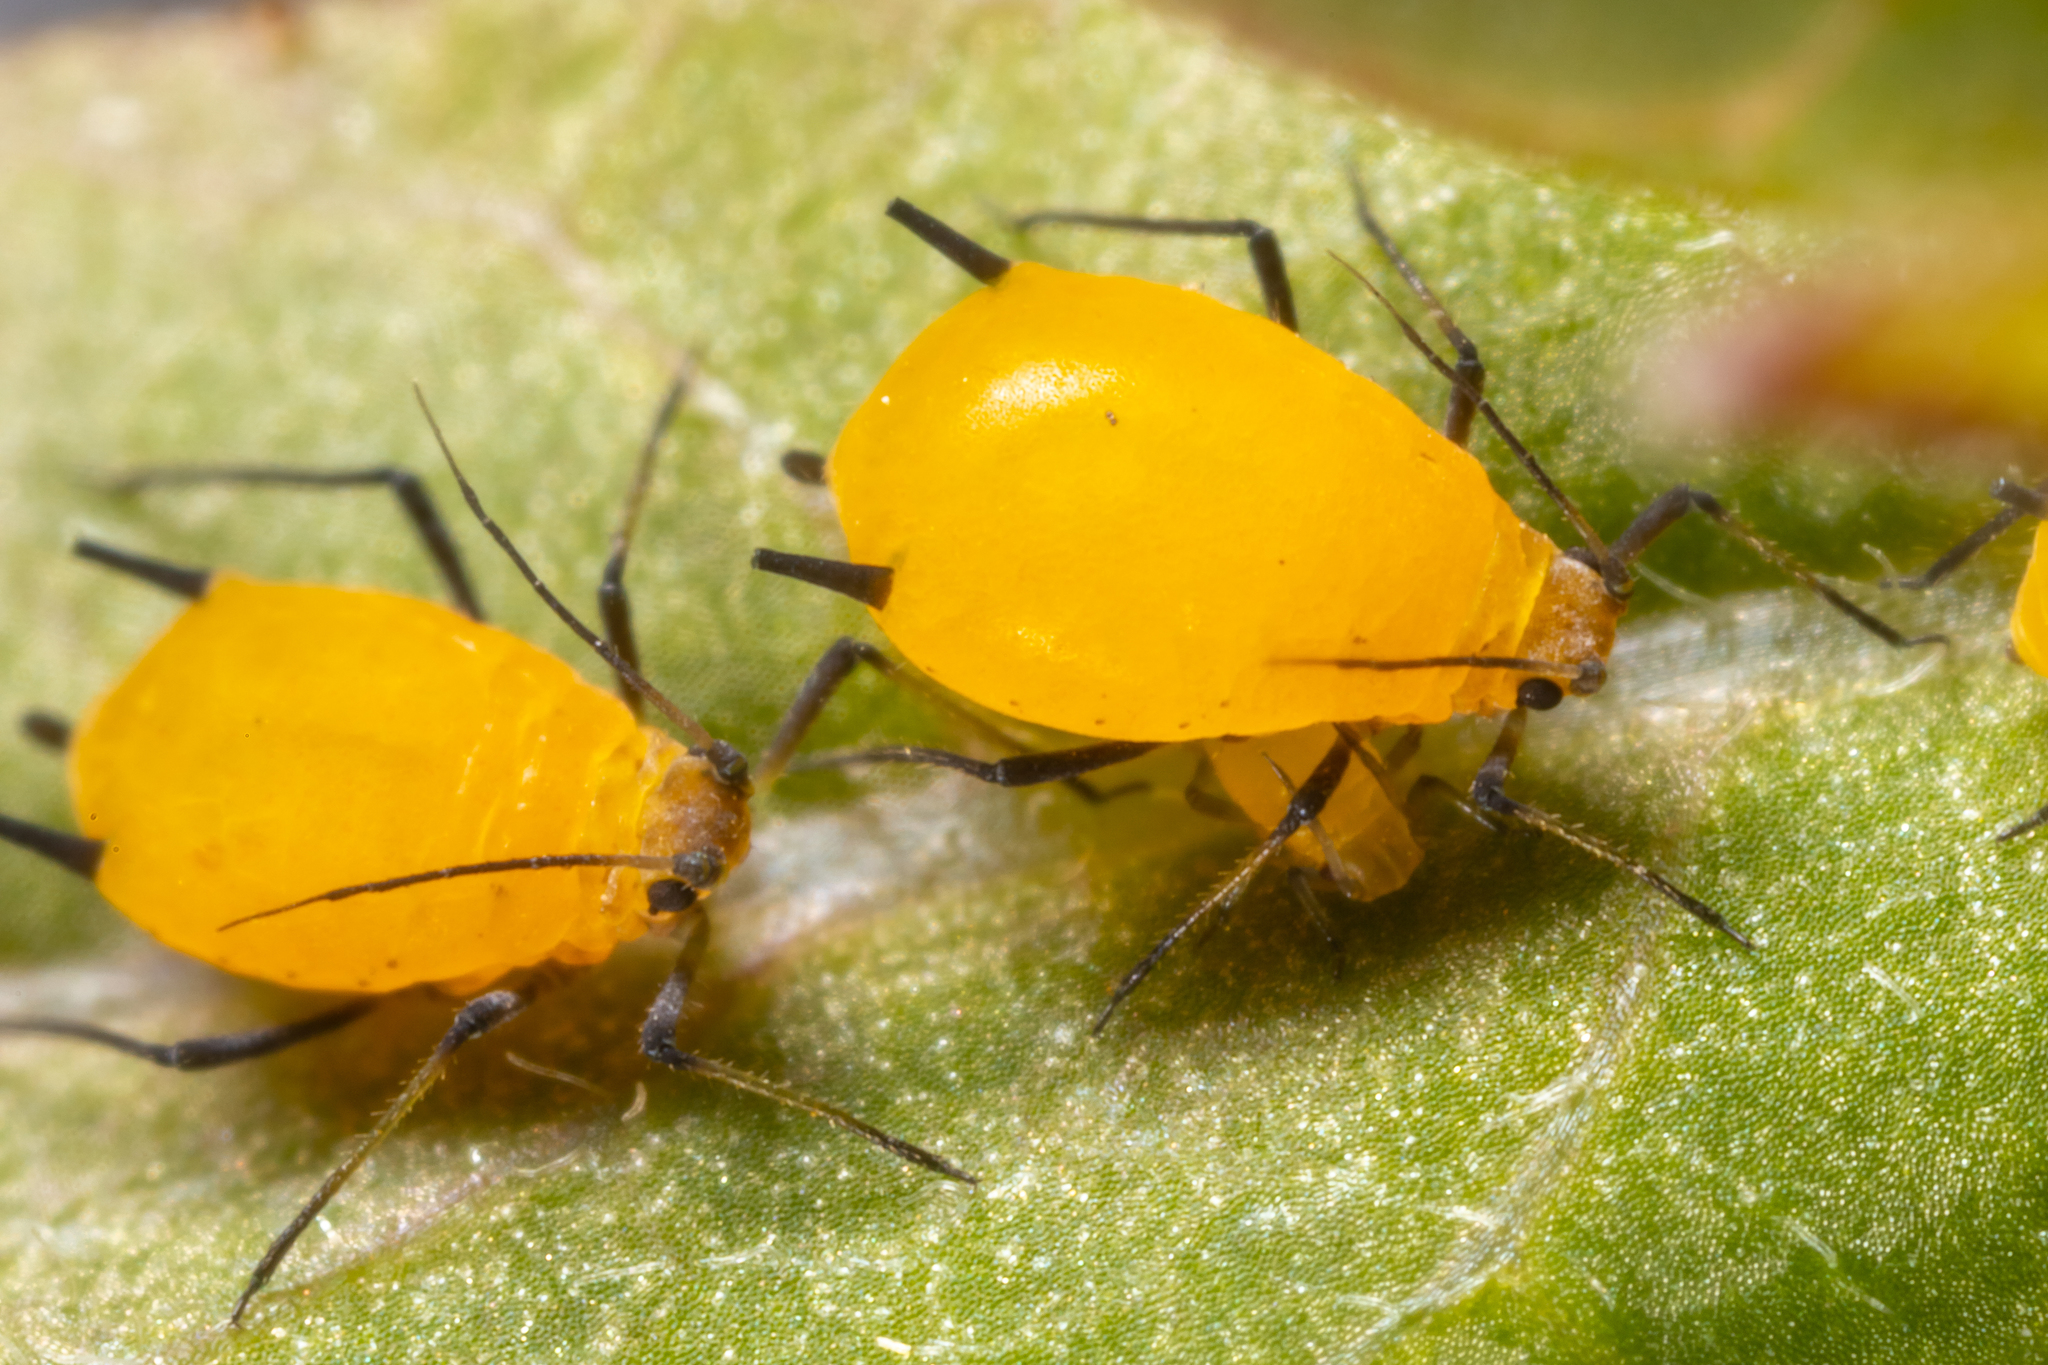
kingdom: Animalia
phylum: Arthropoda
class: Insecta
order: Hemiptera
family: Aphididae
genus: Aphis
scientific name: Aphis nerii
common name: Oleander aphid
